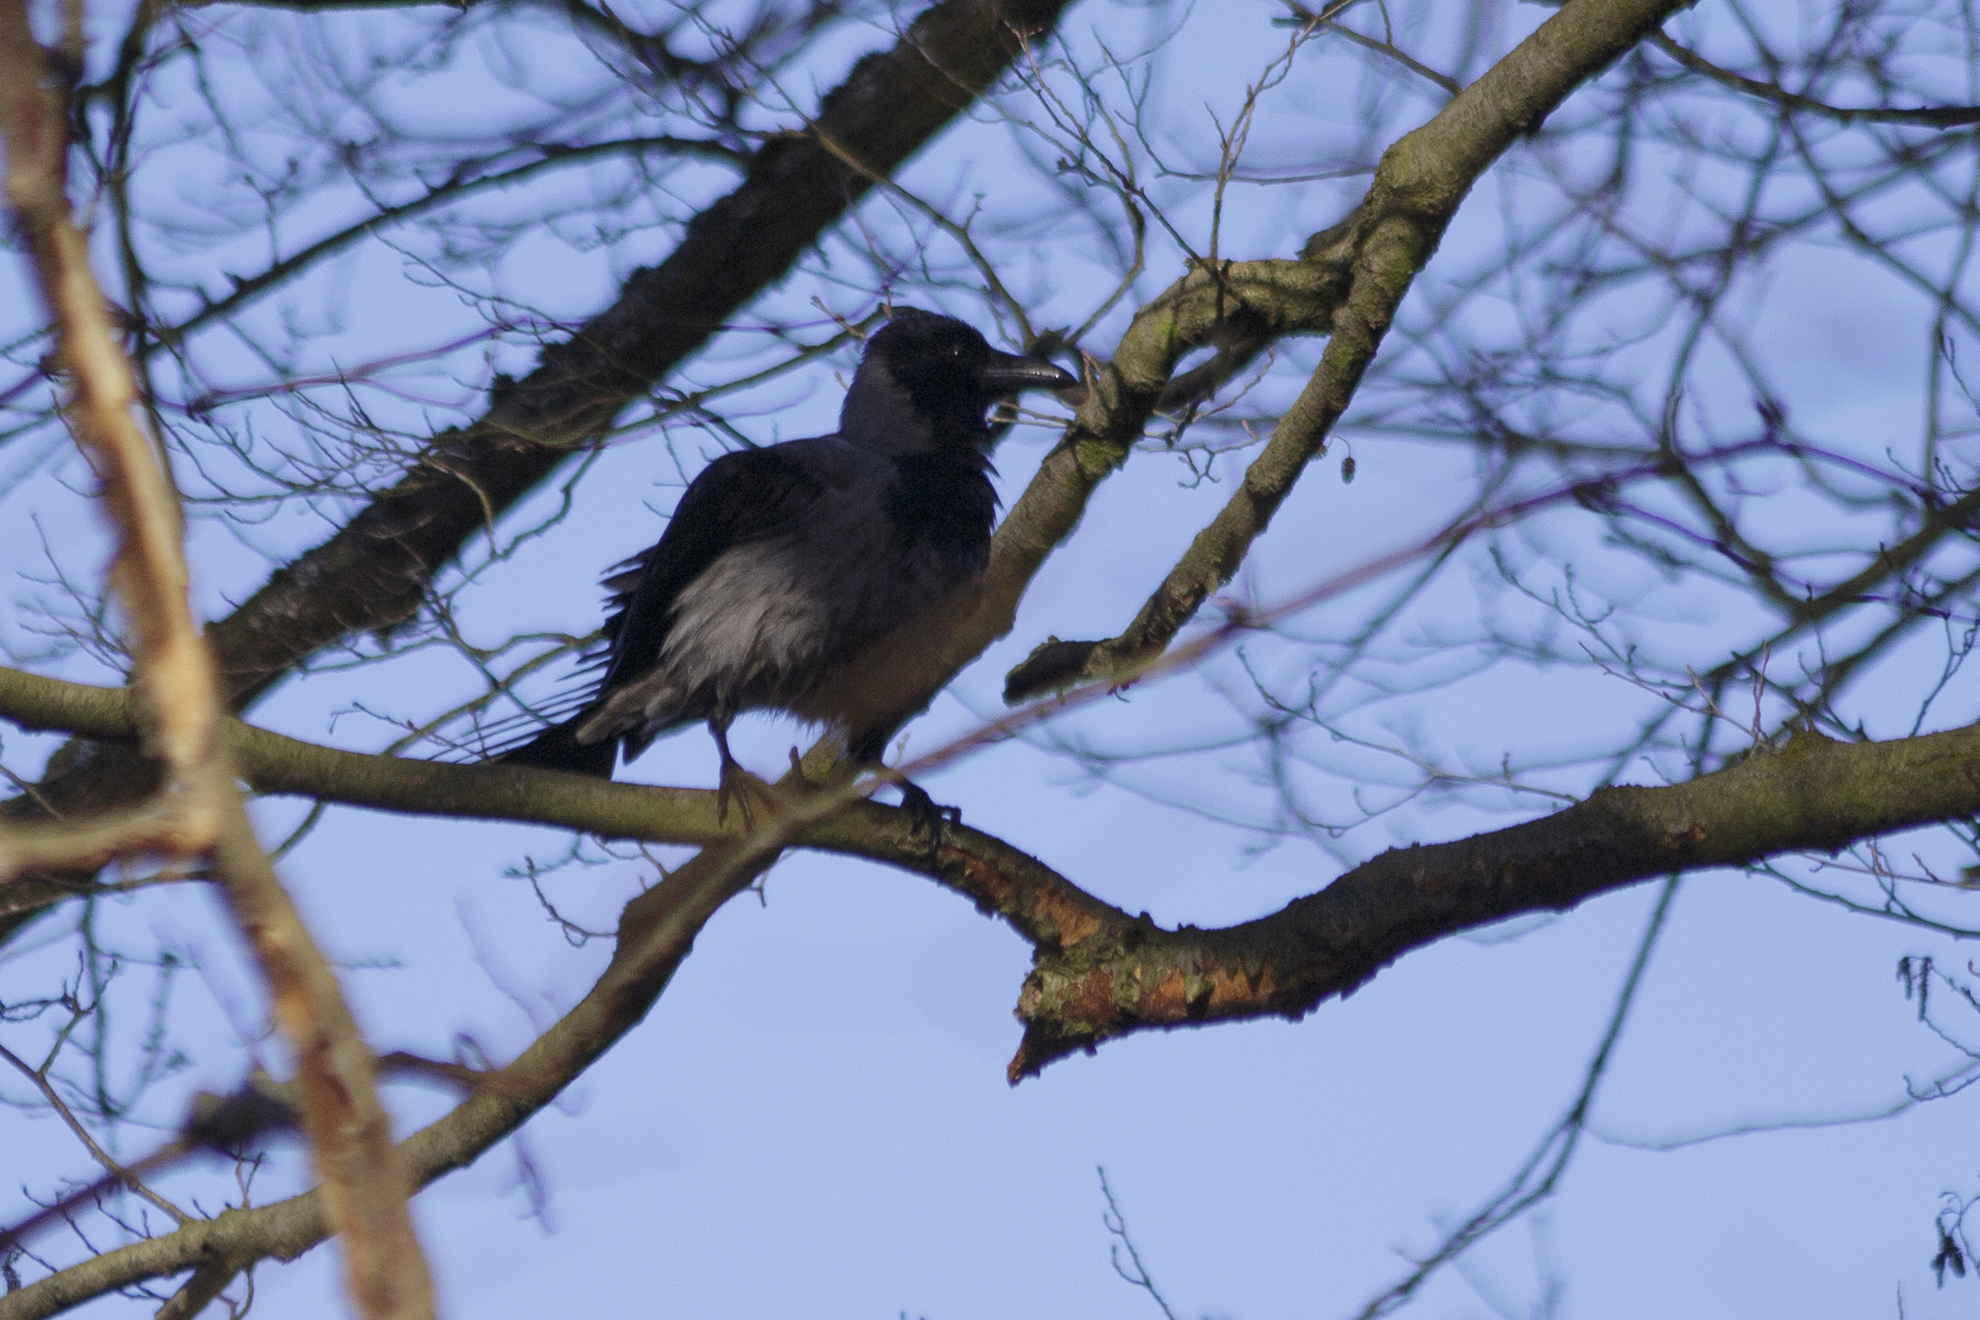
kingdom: Animalia
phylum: Chordata
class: Aves
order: Passeriformes
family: Corvidae
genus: Corvus
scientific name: Corvus cornix
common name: Hooded crow
